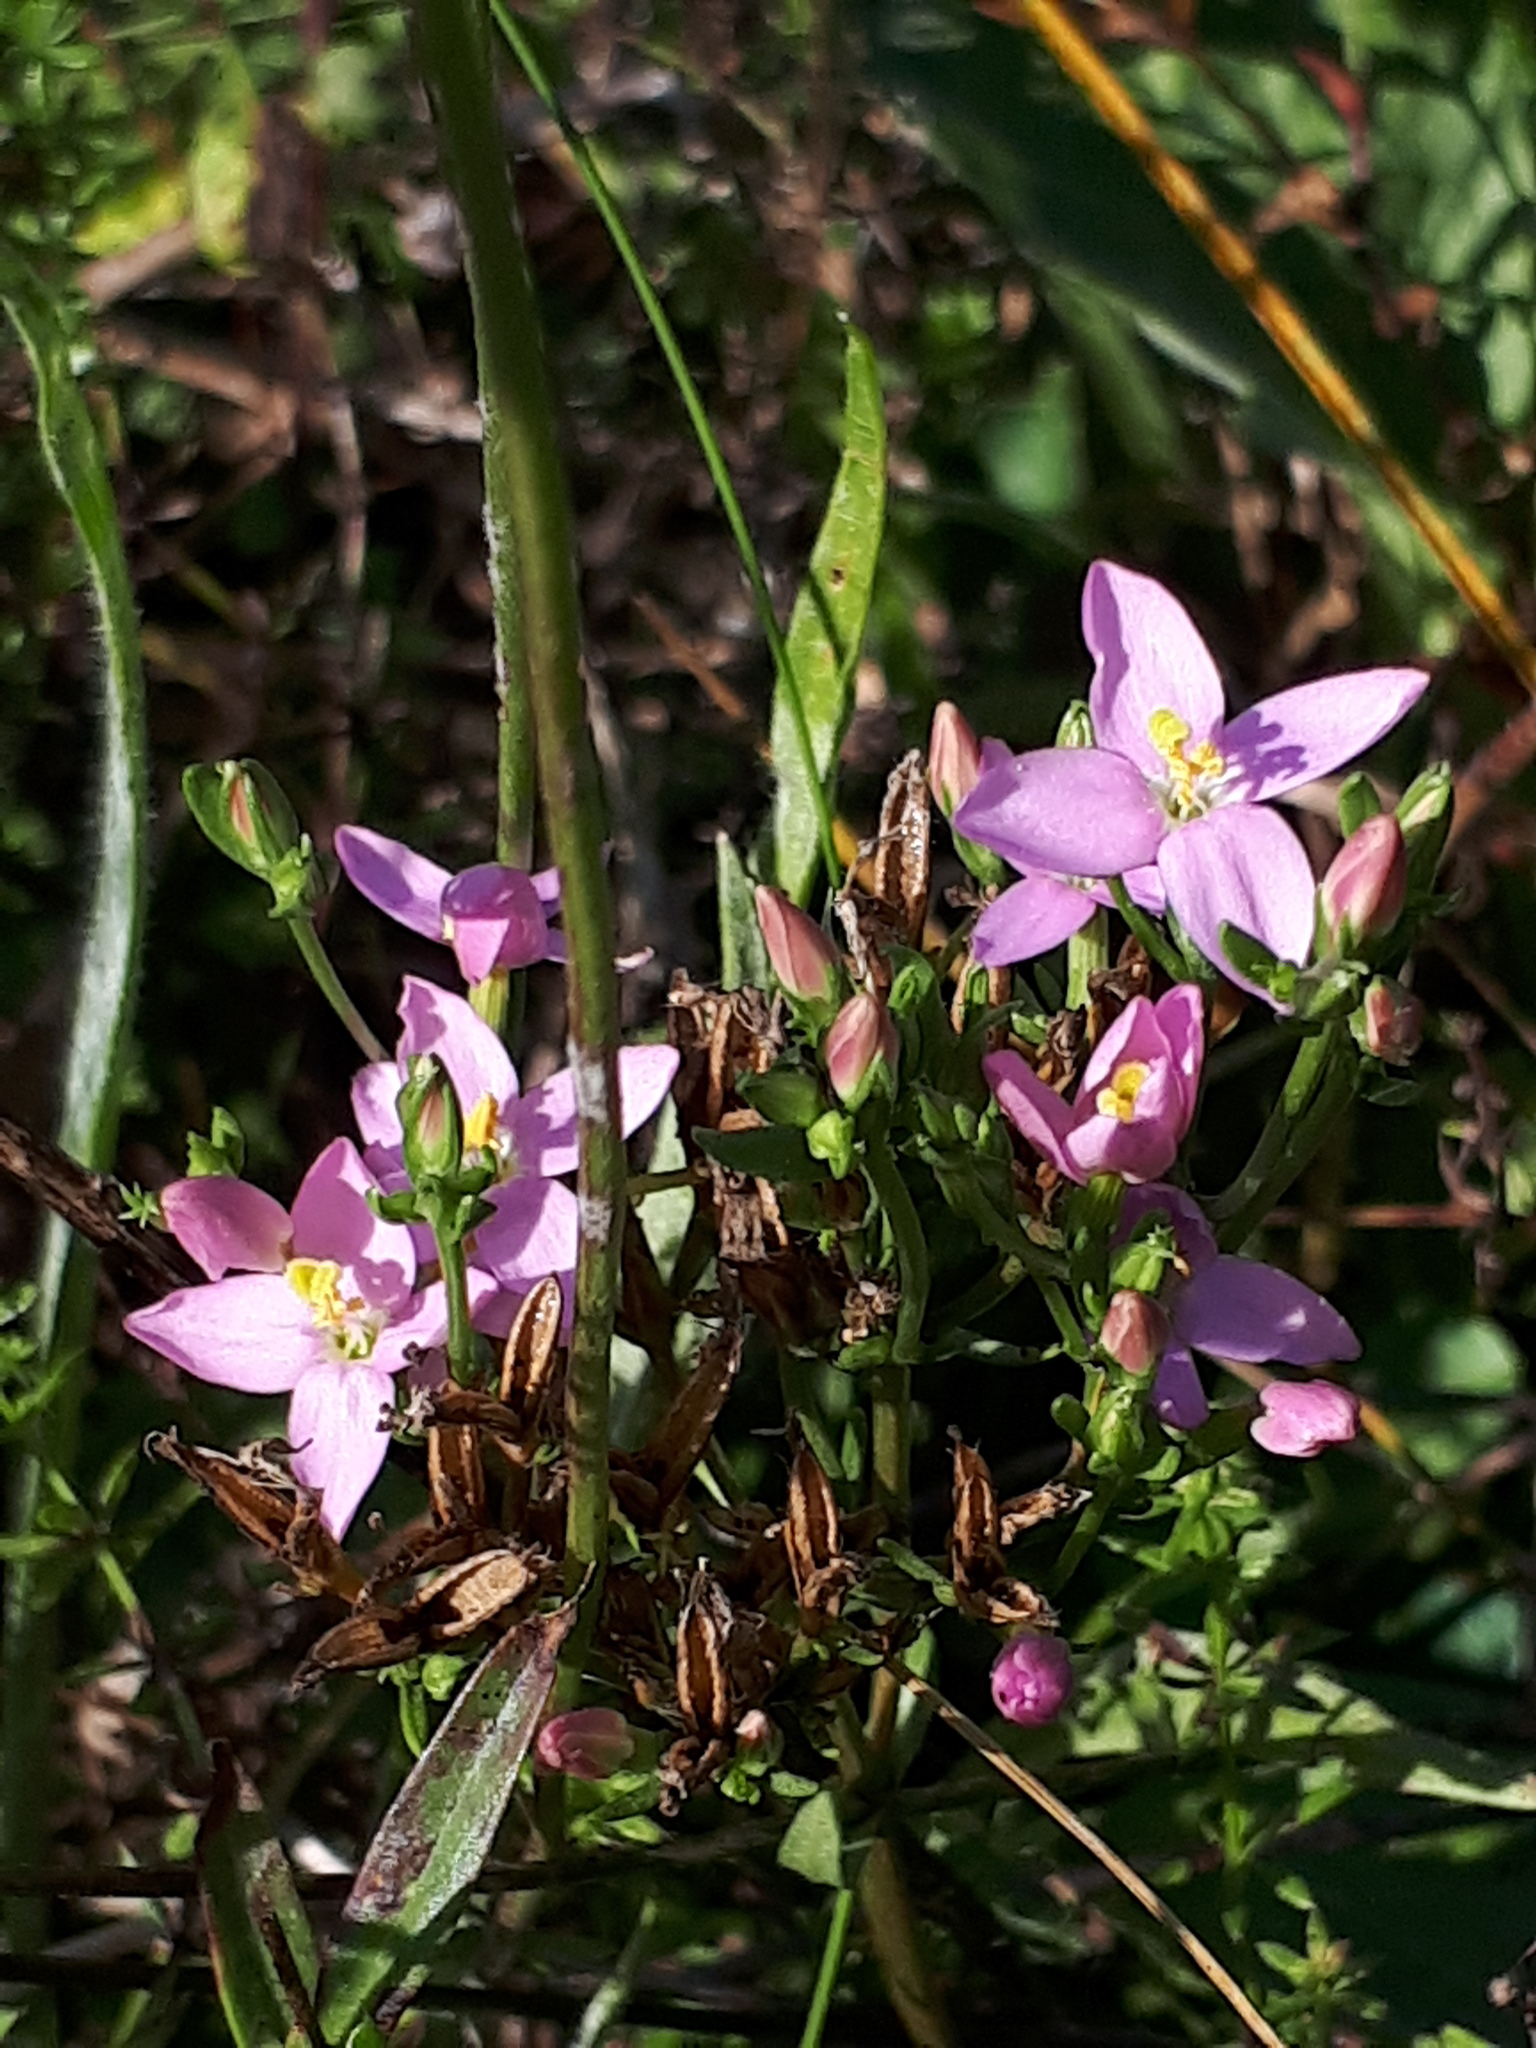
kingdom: Plantae
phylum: Tracheophyta
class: Magnoliopsida
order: Gentianales
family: Gentianaceae
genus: Centaurium
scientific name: Centaurium erythraea
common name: Common centaury
